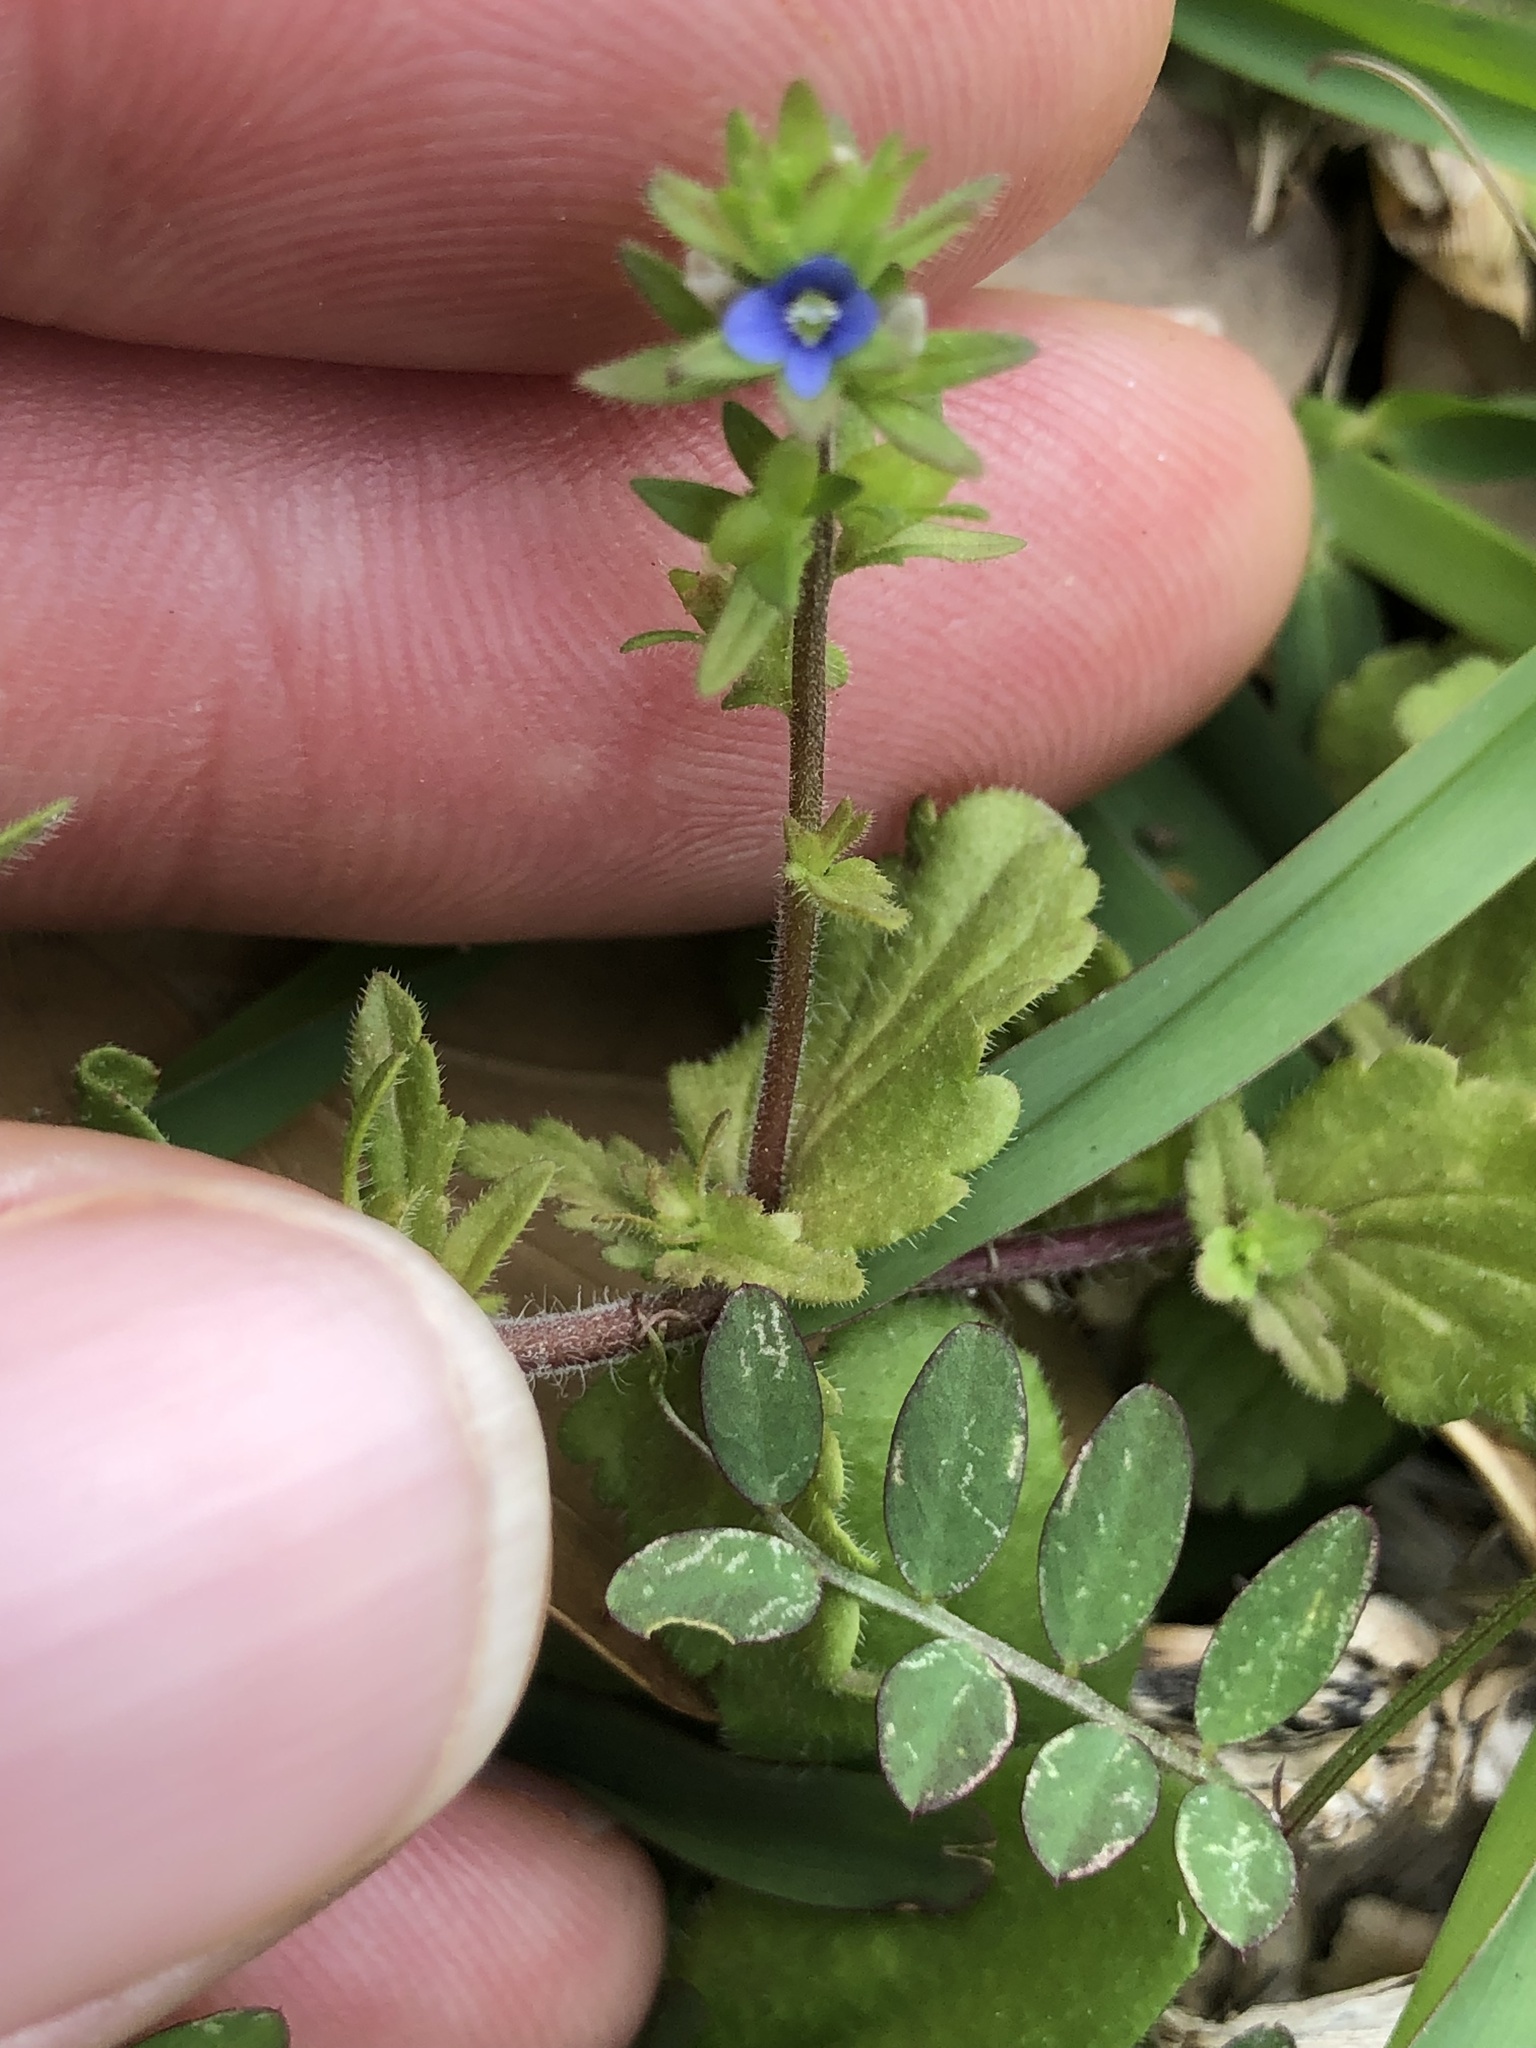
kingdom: Plantae
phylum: Tracheophyta
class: Magnoliopsida
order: Lamiales
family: Plantaginaceae
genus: Veronica
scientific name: Veronica arvensis
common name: Corn speedwell
